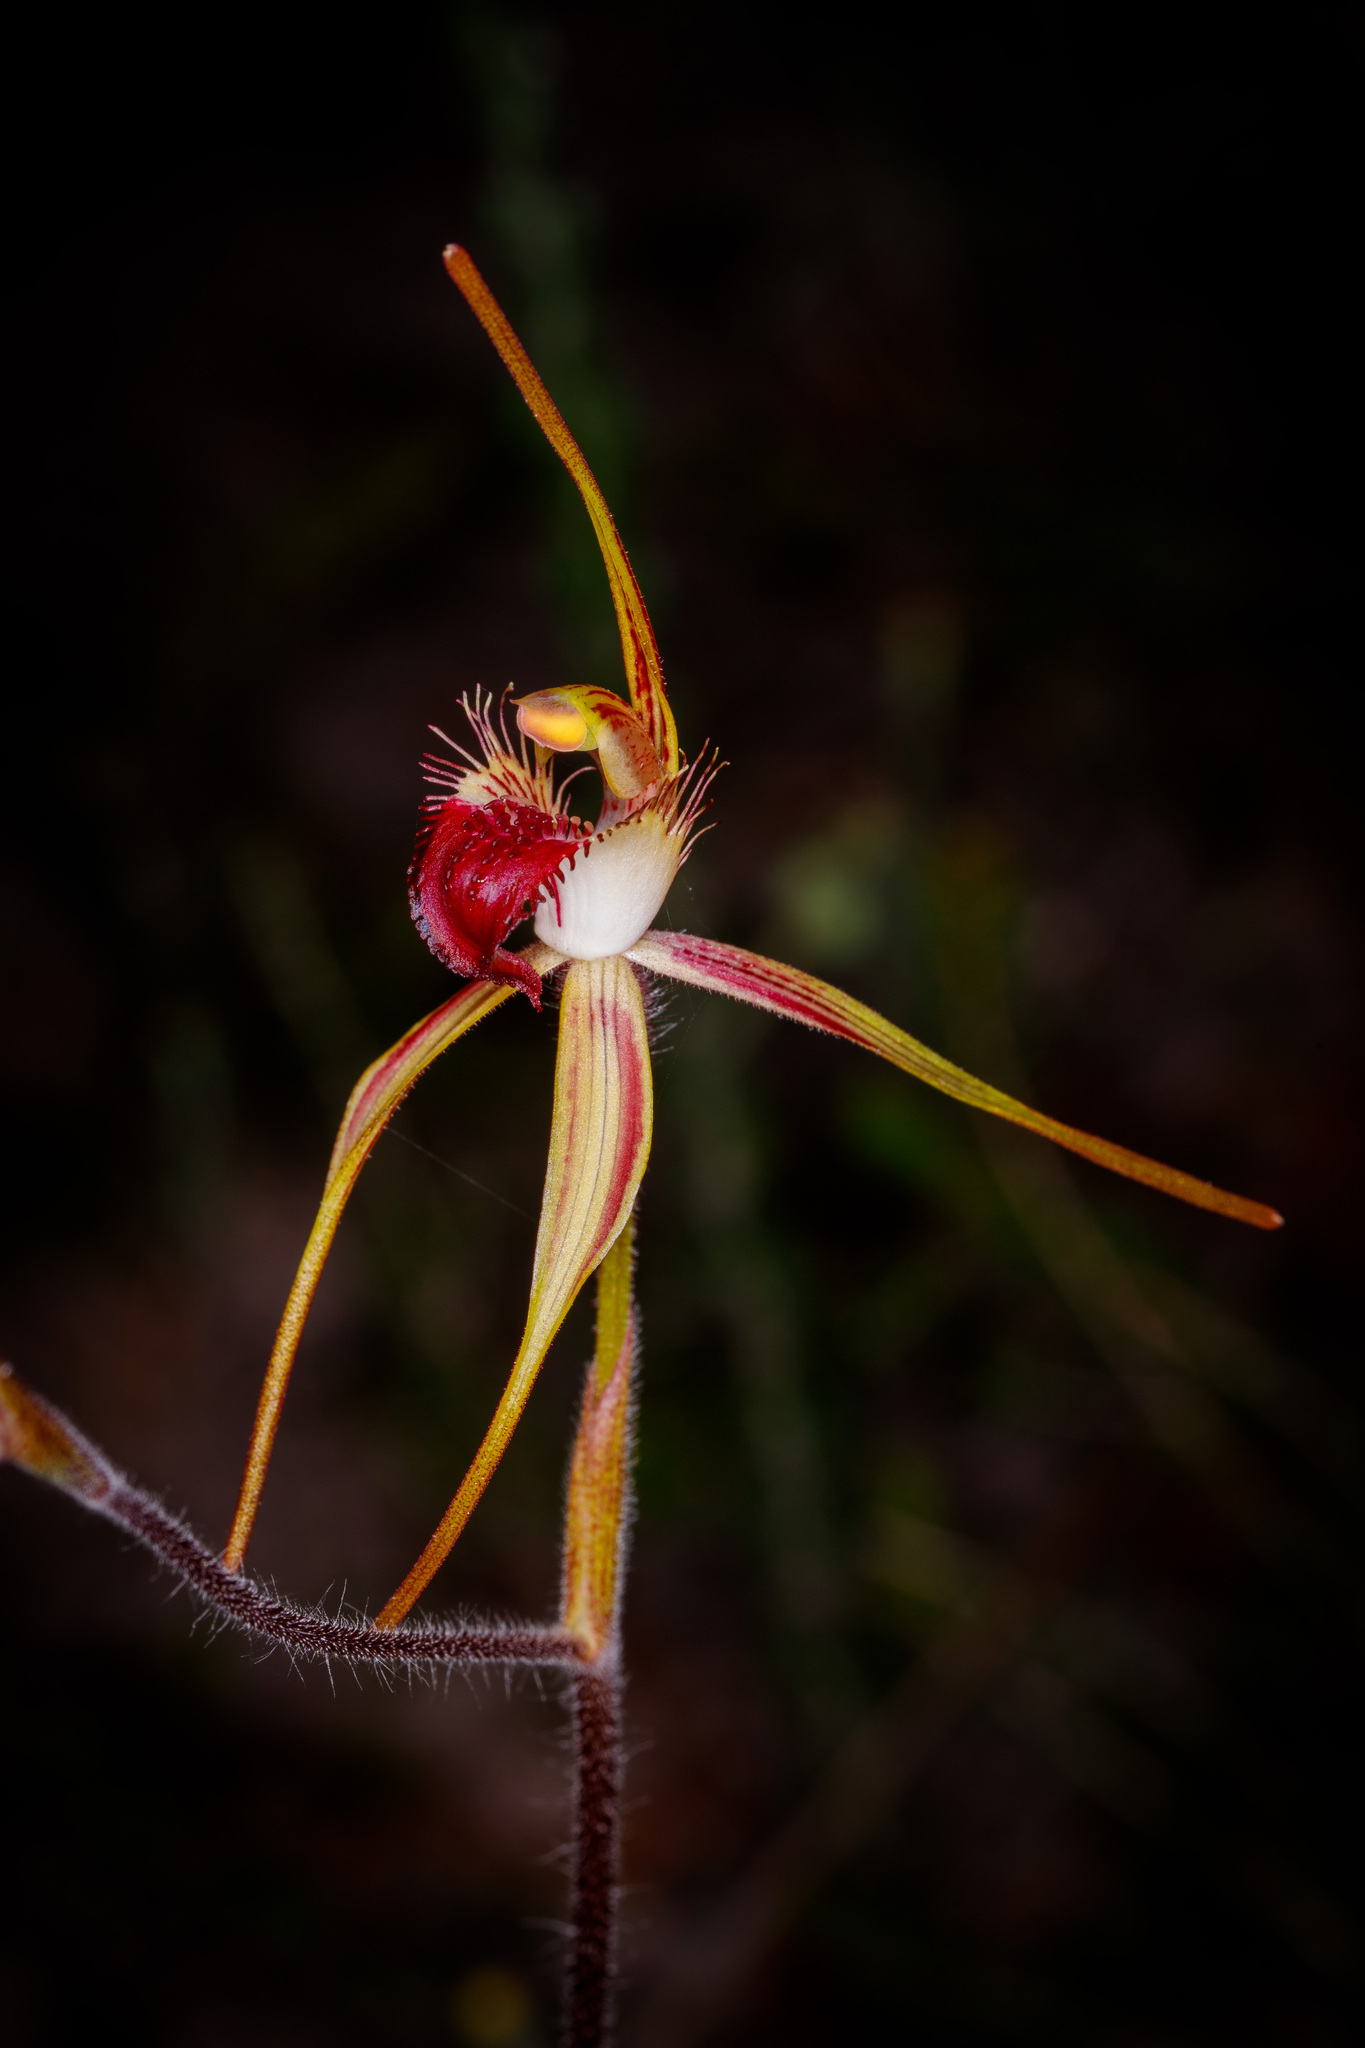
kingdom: Plantae
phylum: Tracheophyta
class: Liliopsida
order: Asparagales
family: Orchidaceae
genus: Caladenia
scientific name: Caladenia brownii
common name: Kari spider orchid
